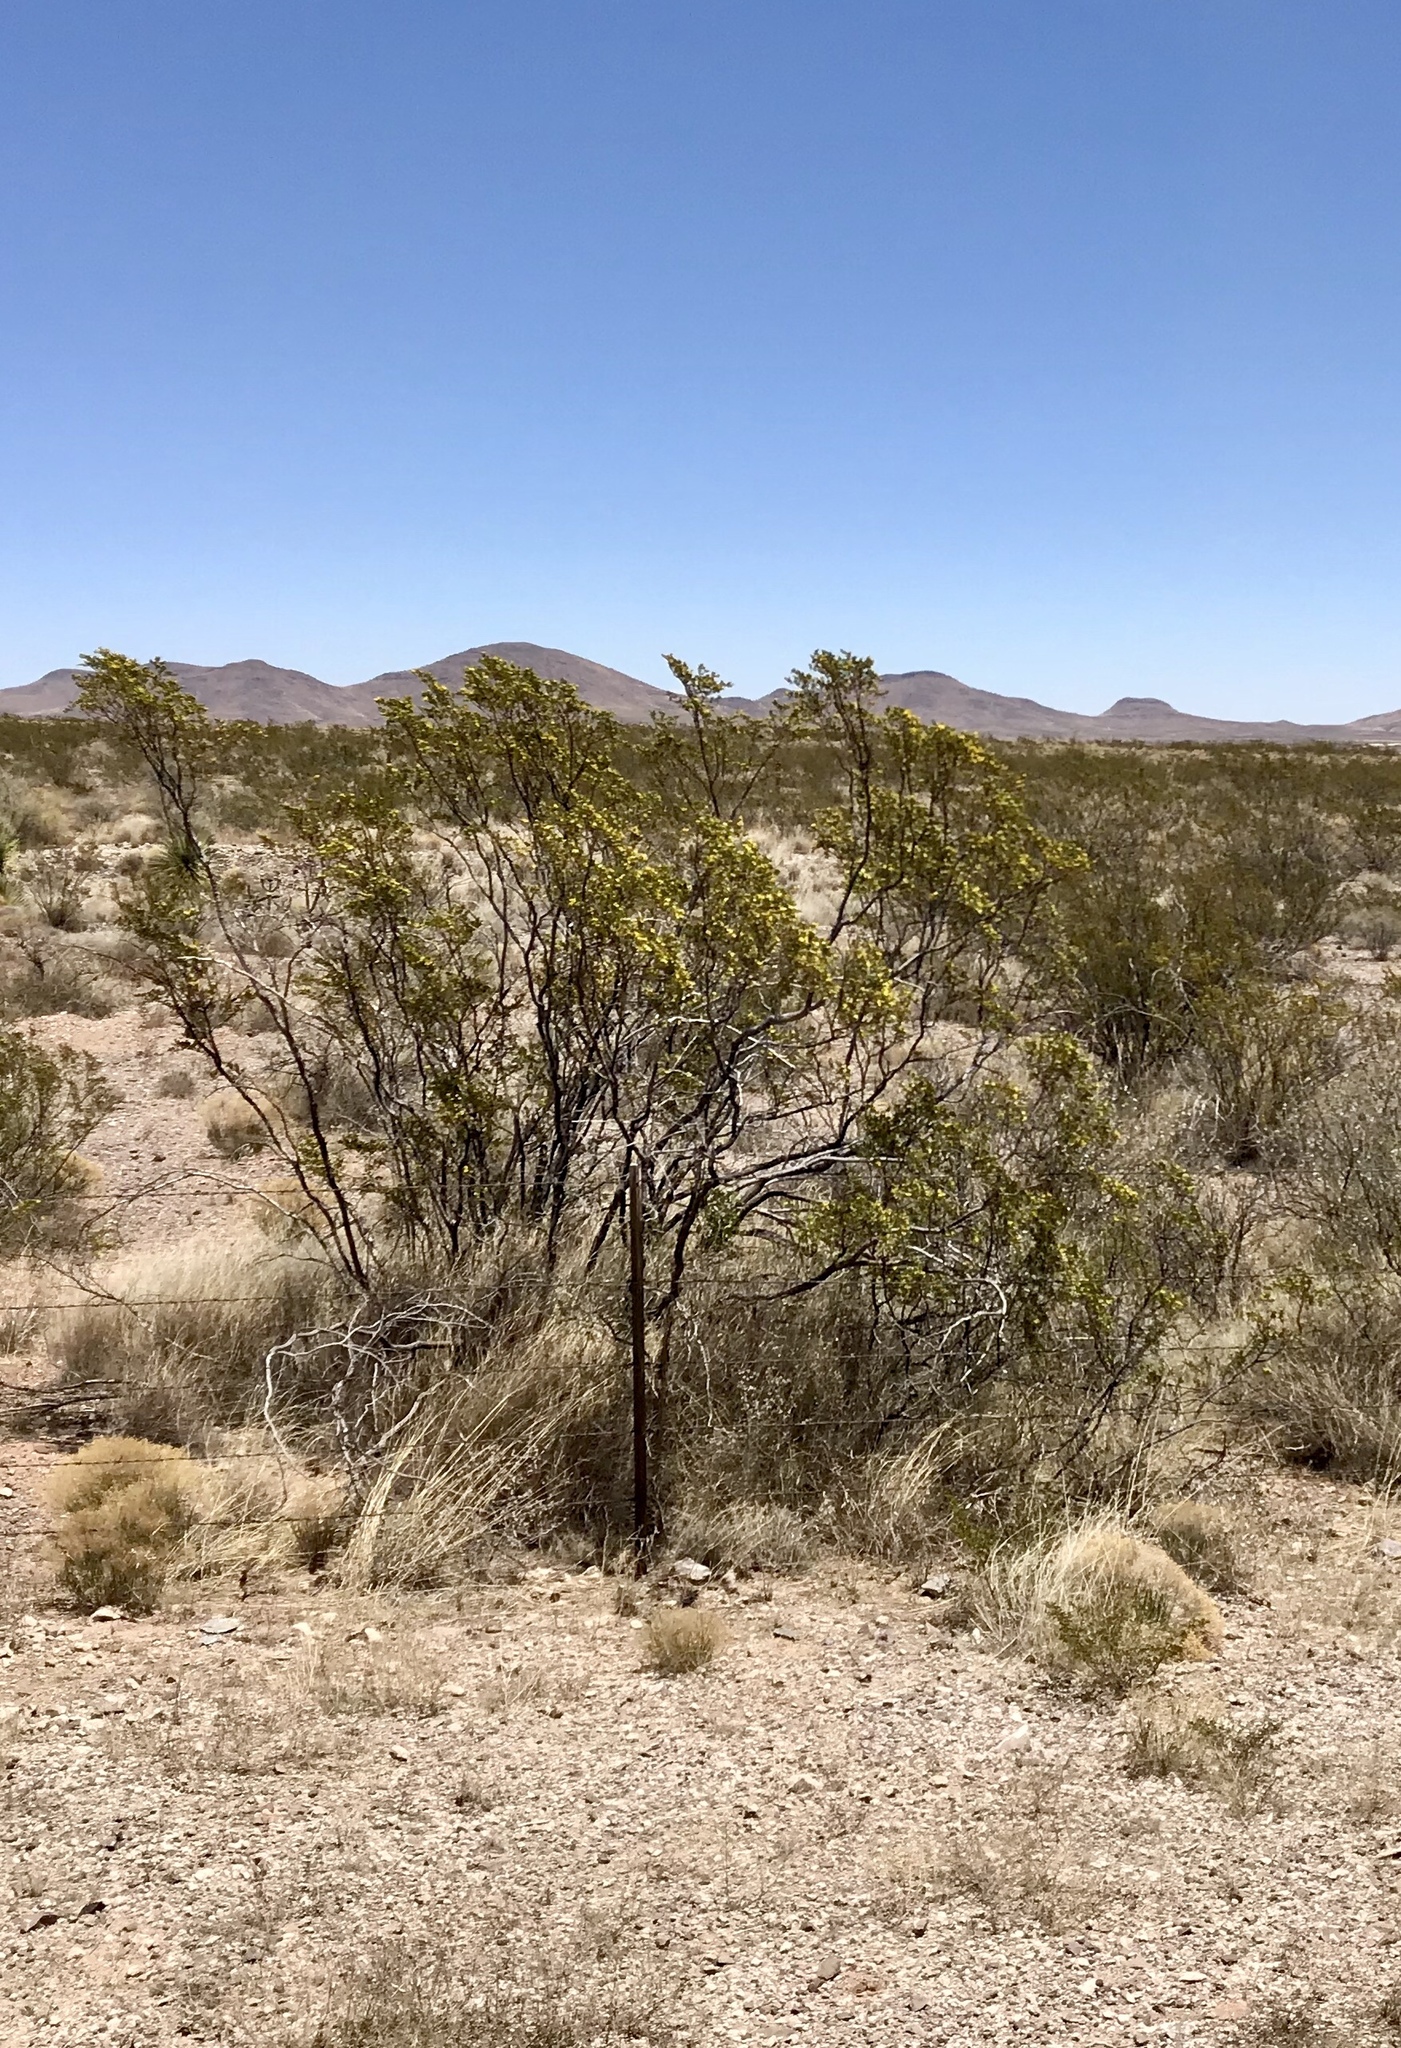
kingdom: Plantae
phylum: Tracheophyta
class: Magnoliopsida
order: Zygophyllales
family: Zygophyllaceae
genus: Larrea
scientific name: Larrea tridentata
